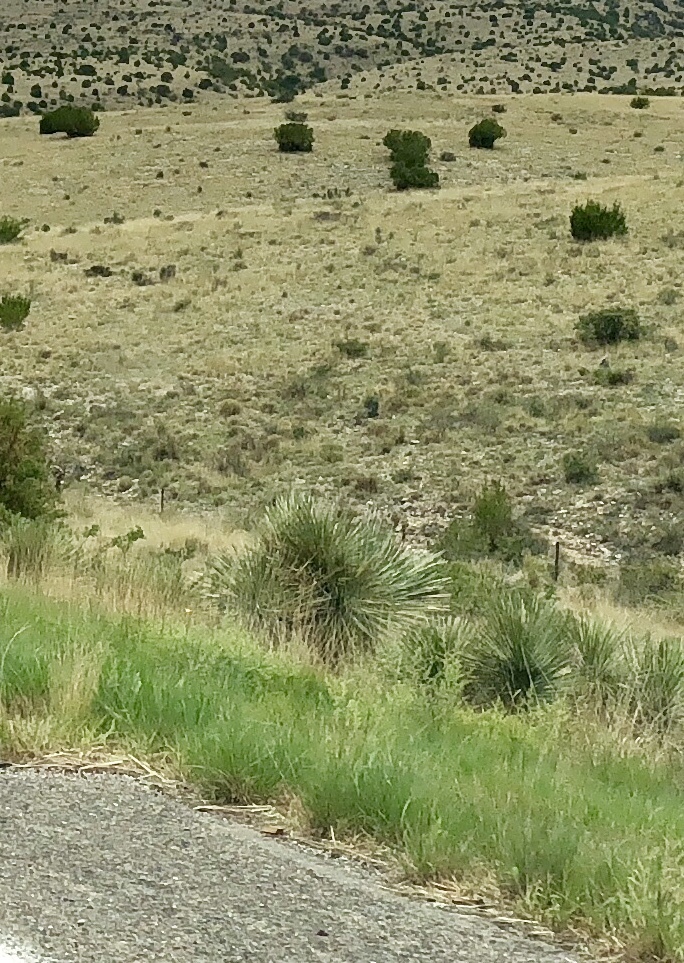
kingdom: Plantae
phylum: Tracheophyta
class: Liliopsida
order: Asparagales
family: Asparagaceae
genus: Dasylirion
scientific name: Dasylirion wheeleri
